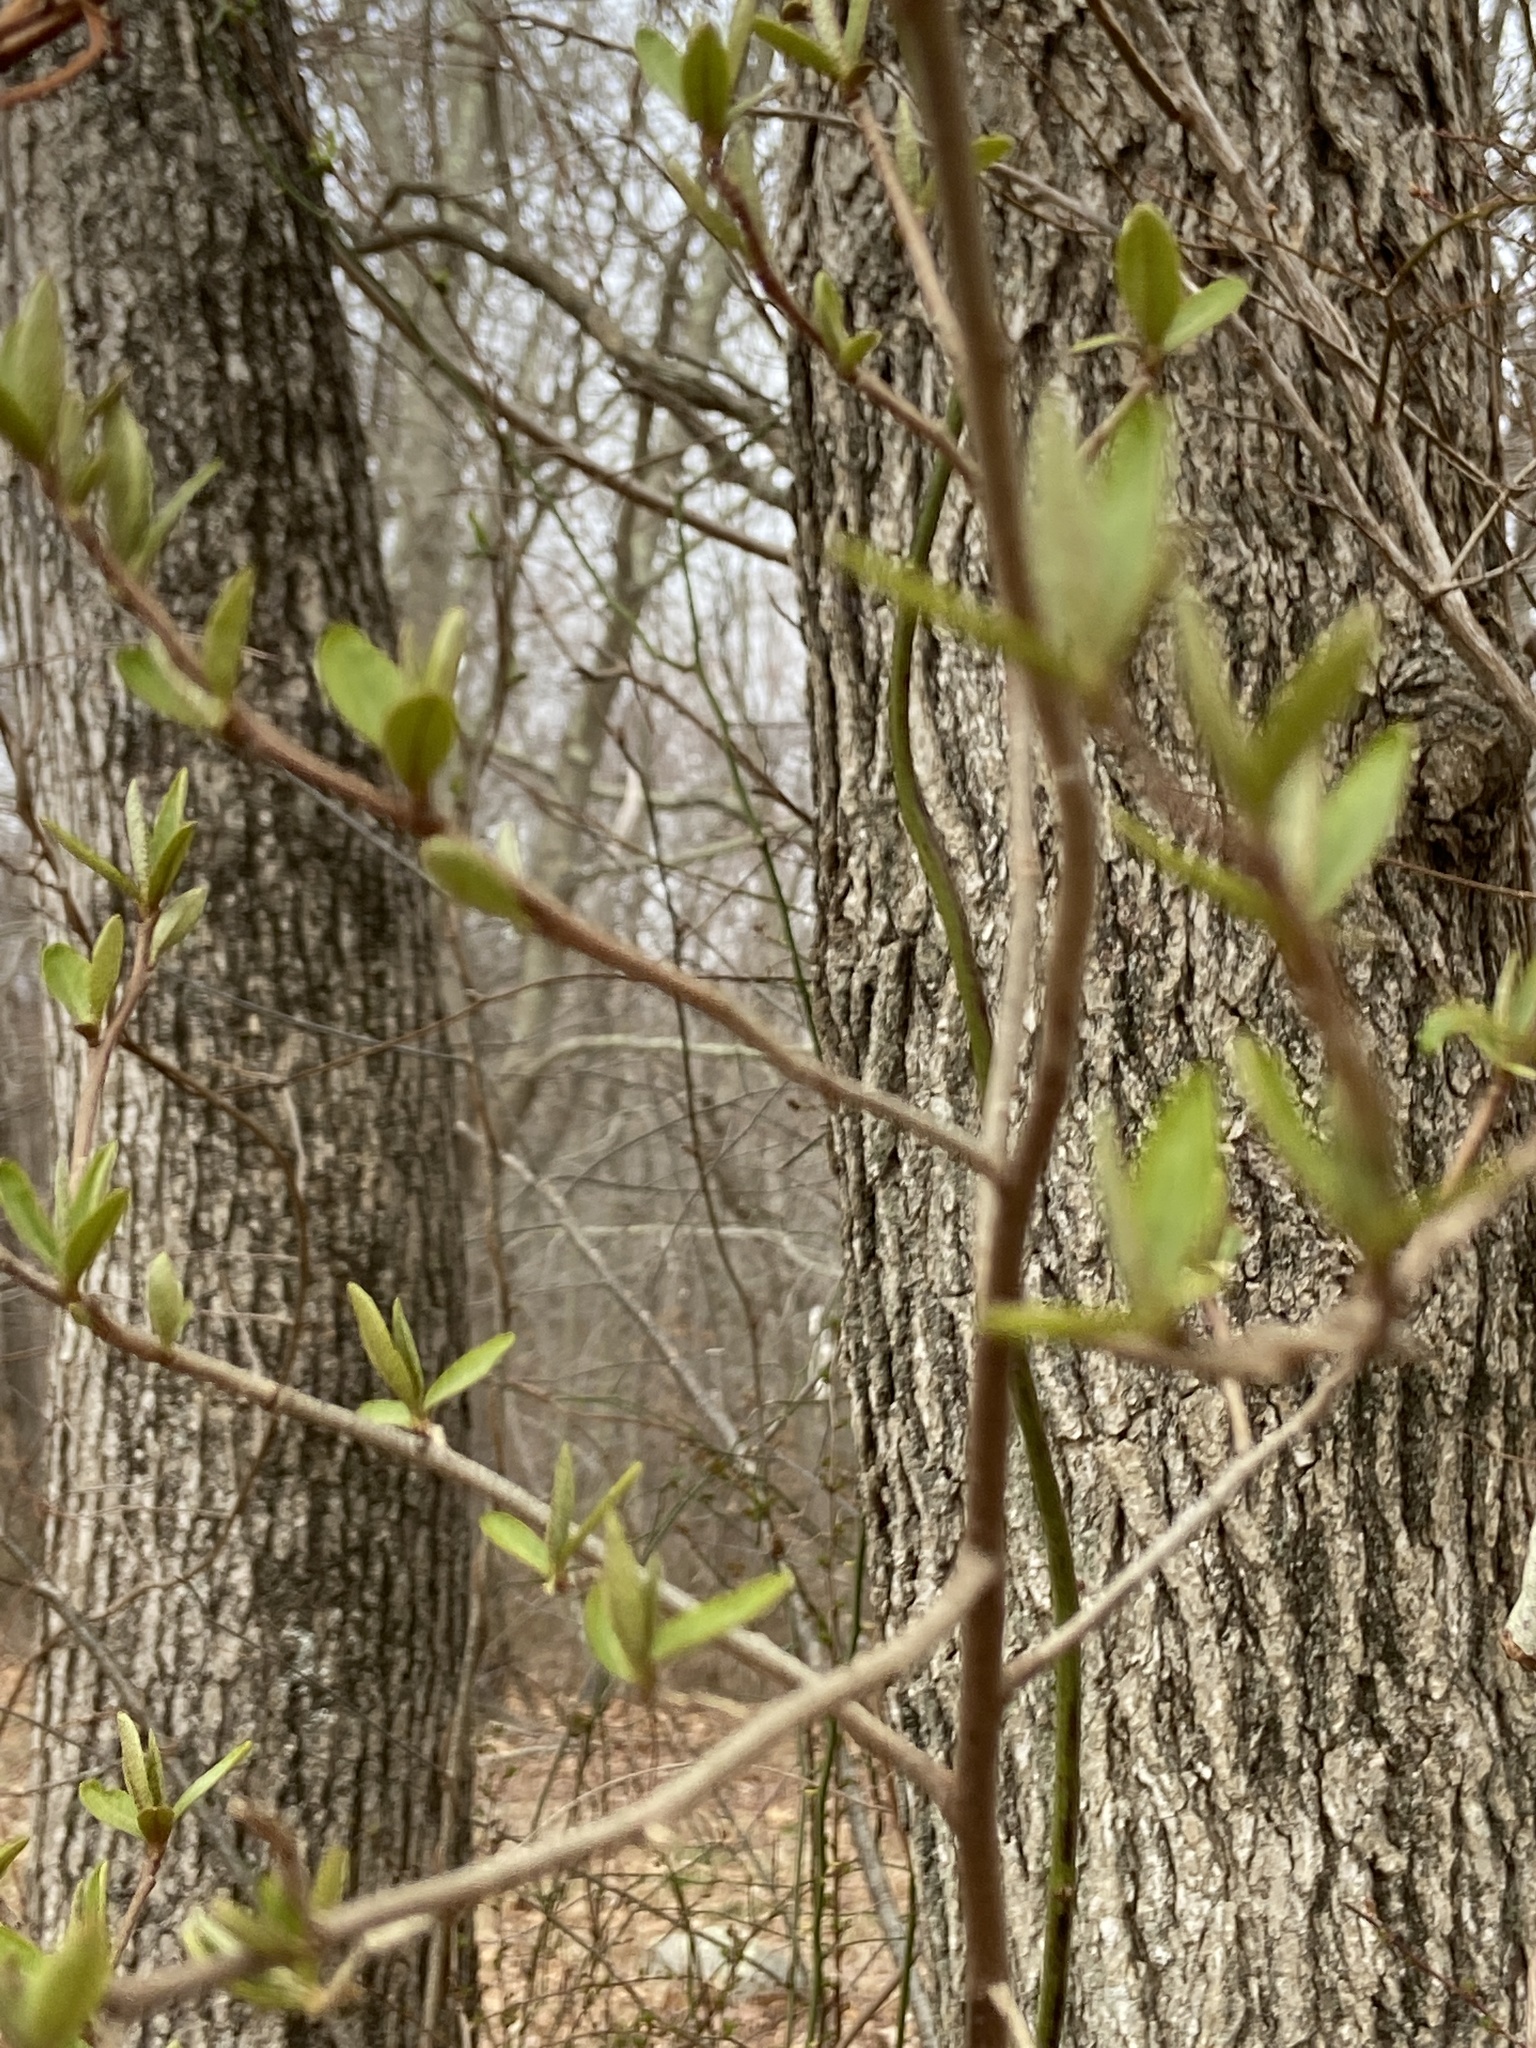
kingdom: Plantae
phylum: Tracheophyta
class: Magnoliopsida
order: Rosales
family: Elaeagnaceae
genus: Elaeagnus
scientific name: Elaeagnus umbellata
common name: Autumn olive
